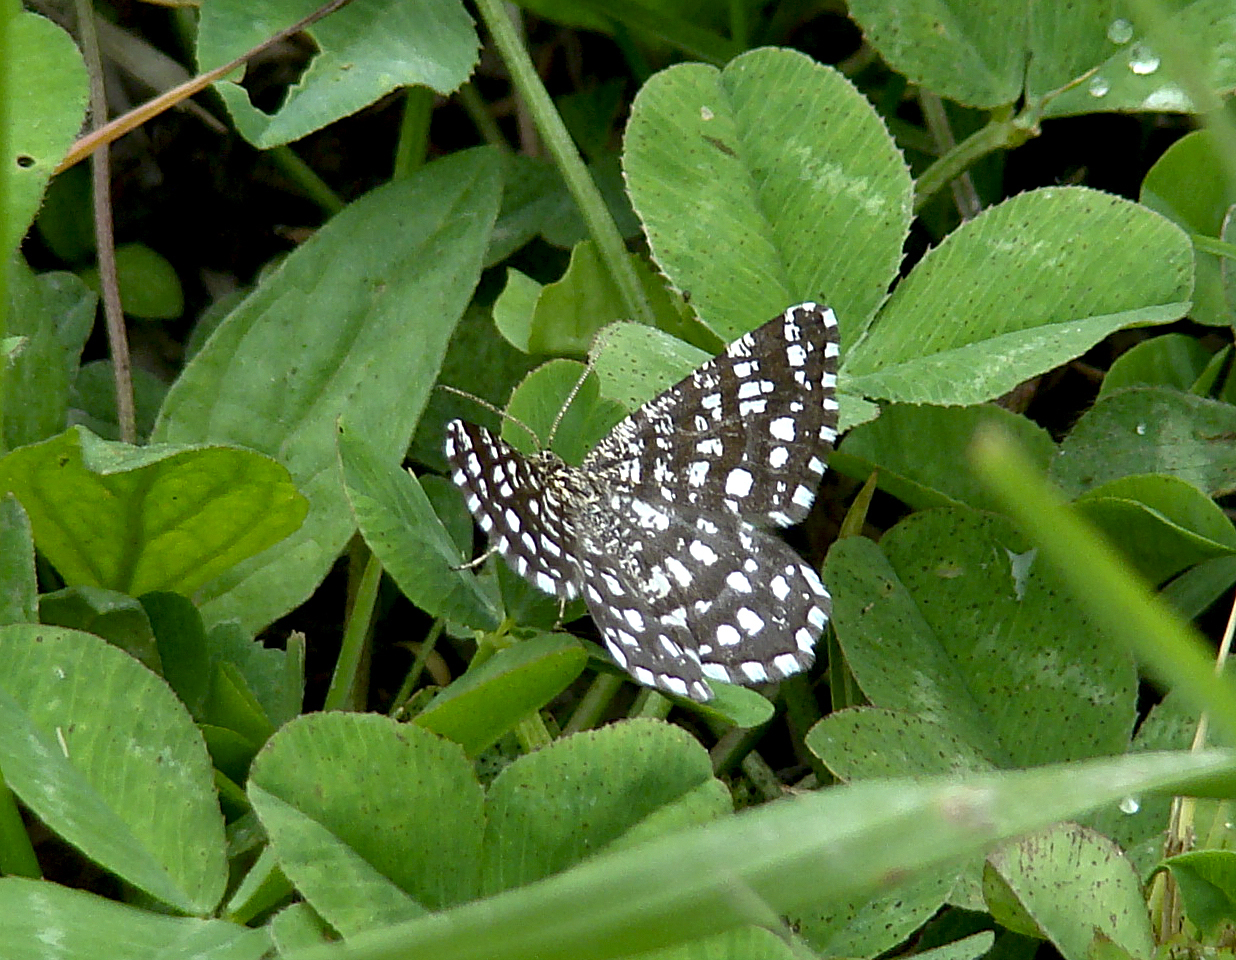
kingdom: Animalia
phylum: Arthropoda
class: Insecta
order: Lepidoptera
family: Geometridae
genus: Chiasmia
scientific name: Chiasmia clathrata
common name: Latticed heath
